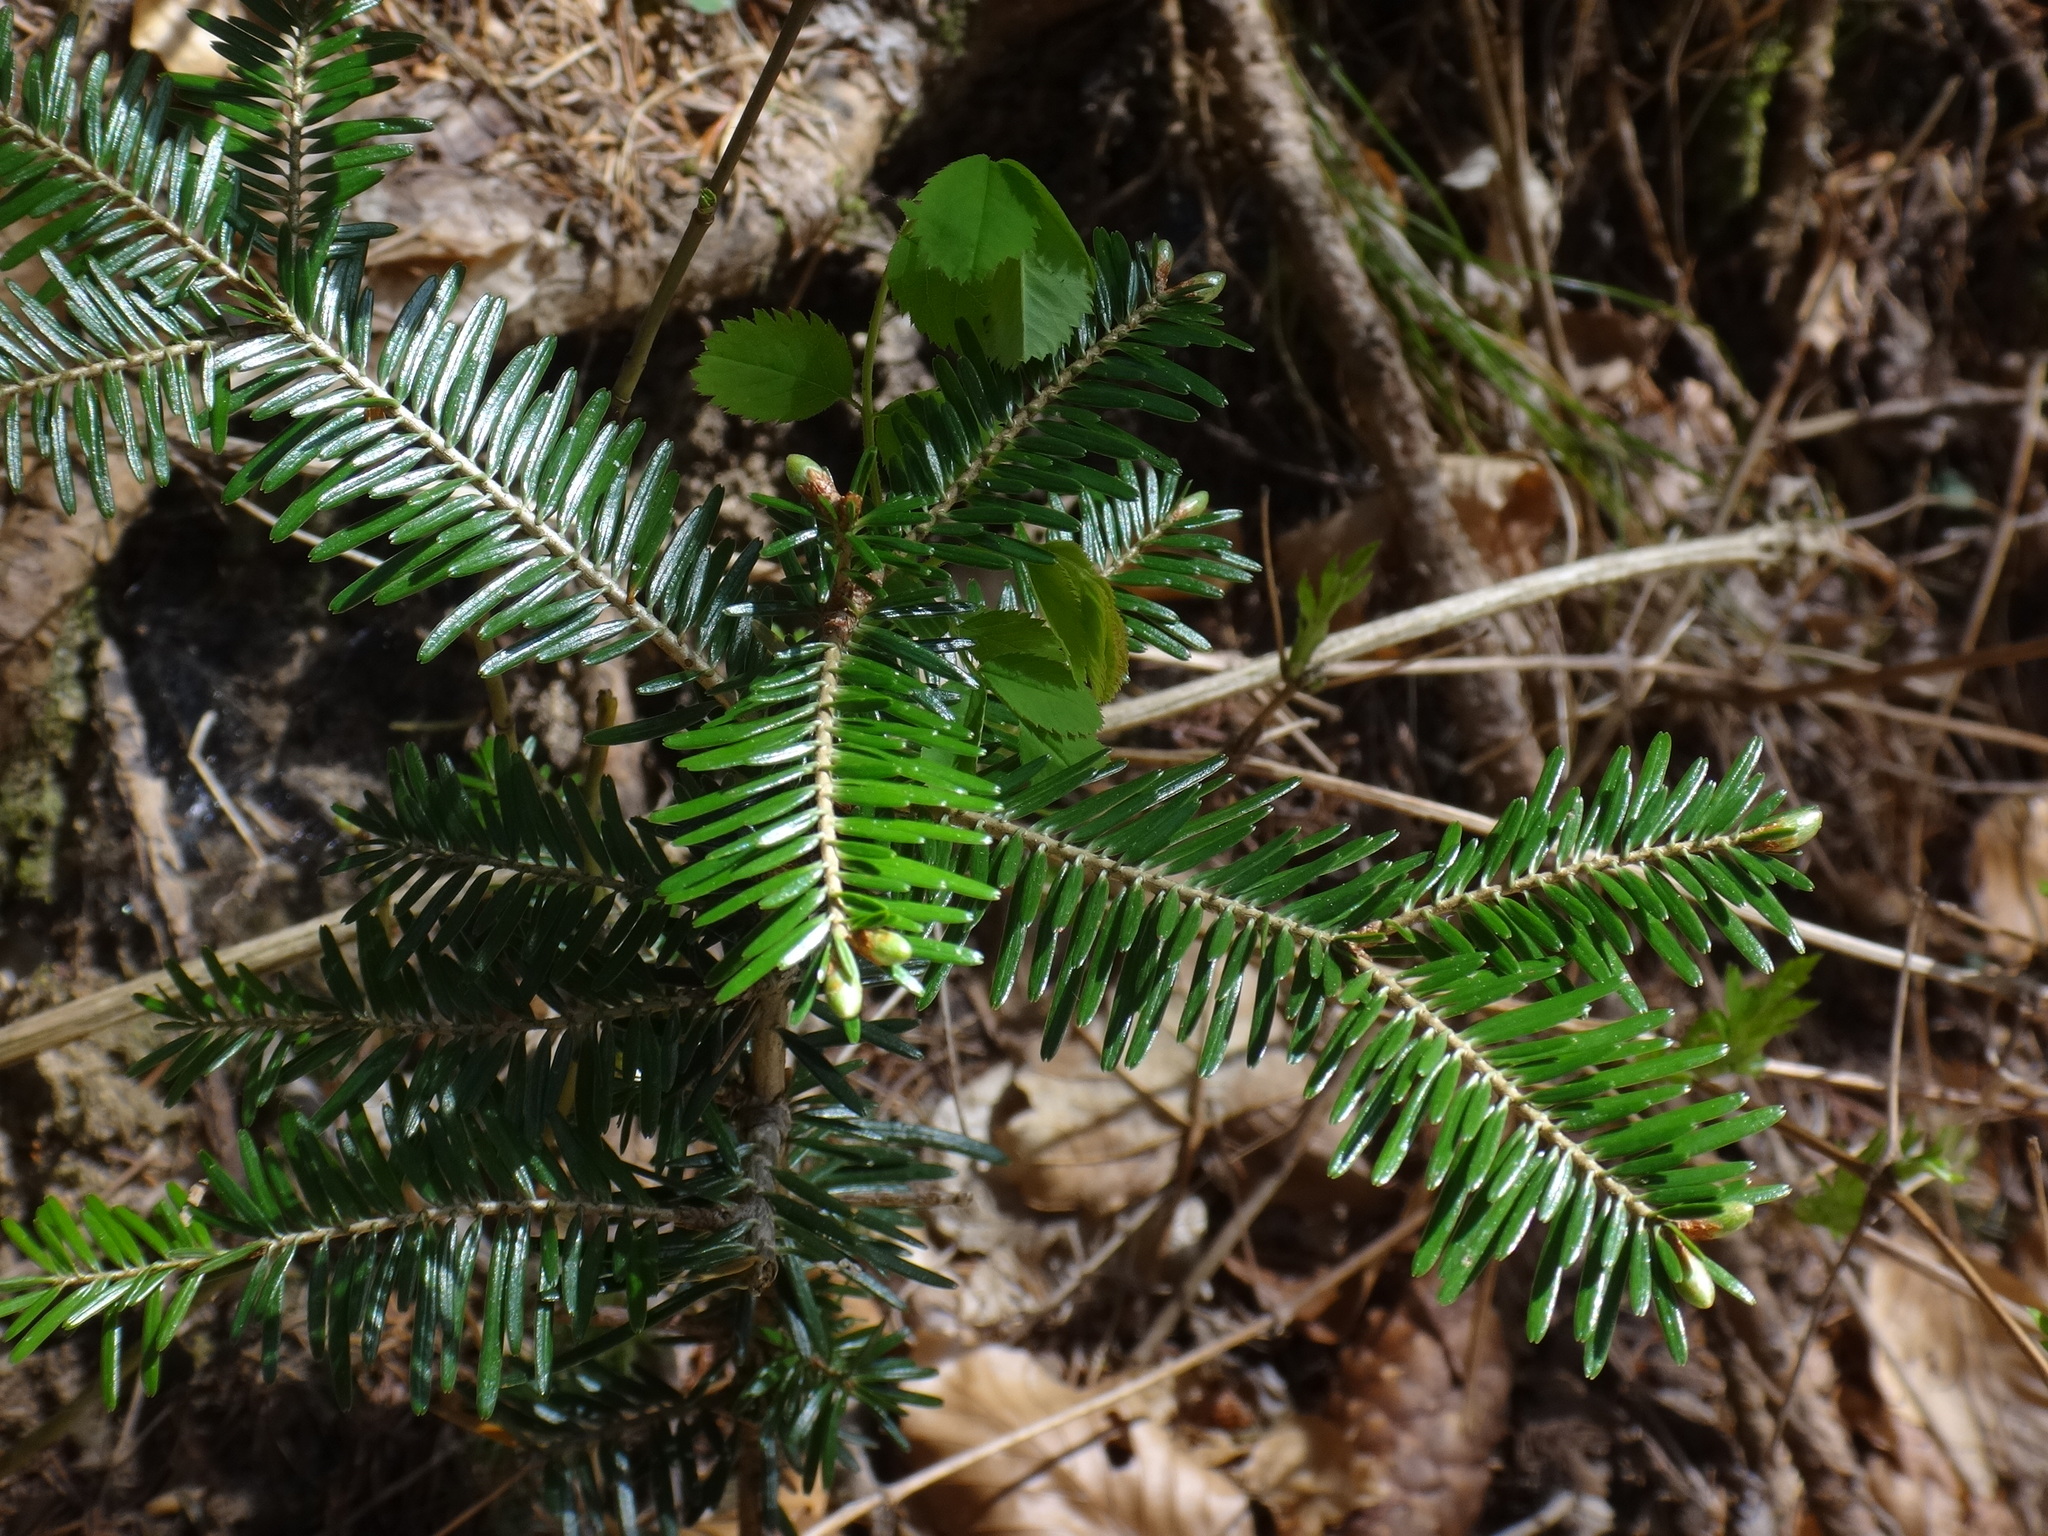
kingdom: Plantae
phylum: Tracheophyta
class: Pinopsida
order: Pinales
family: Pinaceae
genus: Abies
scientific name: Abies alba
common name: Silver fir
